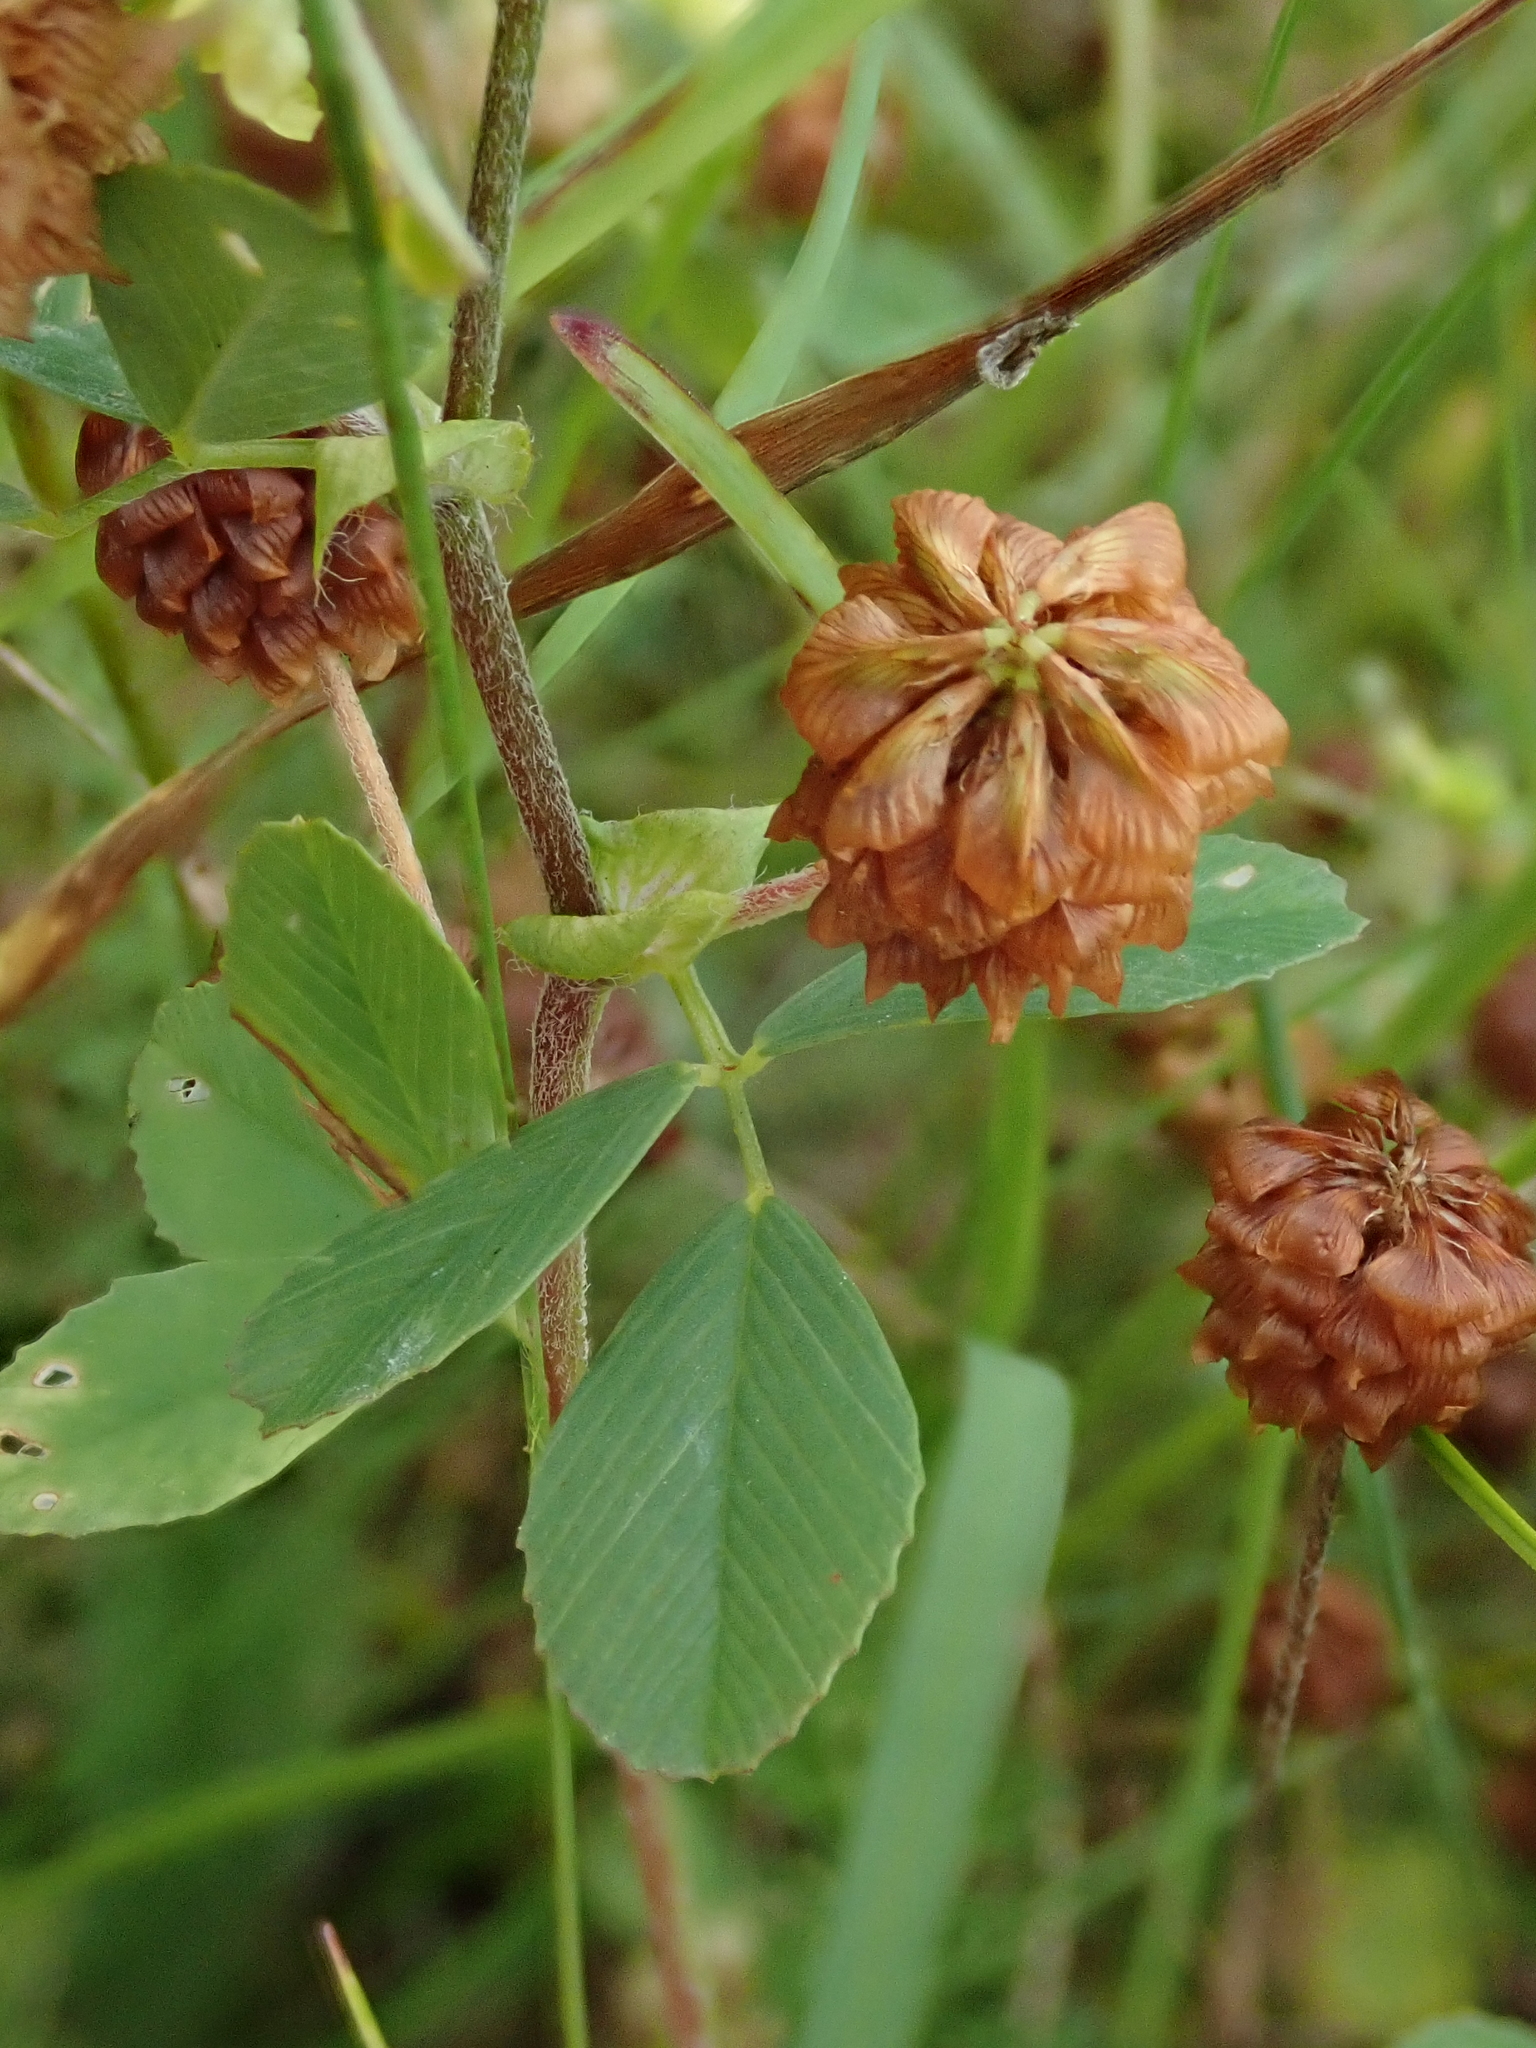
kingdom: Plantae
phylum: Tracheophyta
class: Magnoliopsida
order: Fabales
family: Fabaceae
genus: Trifolium
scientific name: Trifolium campestre
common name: Field clover
